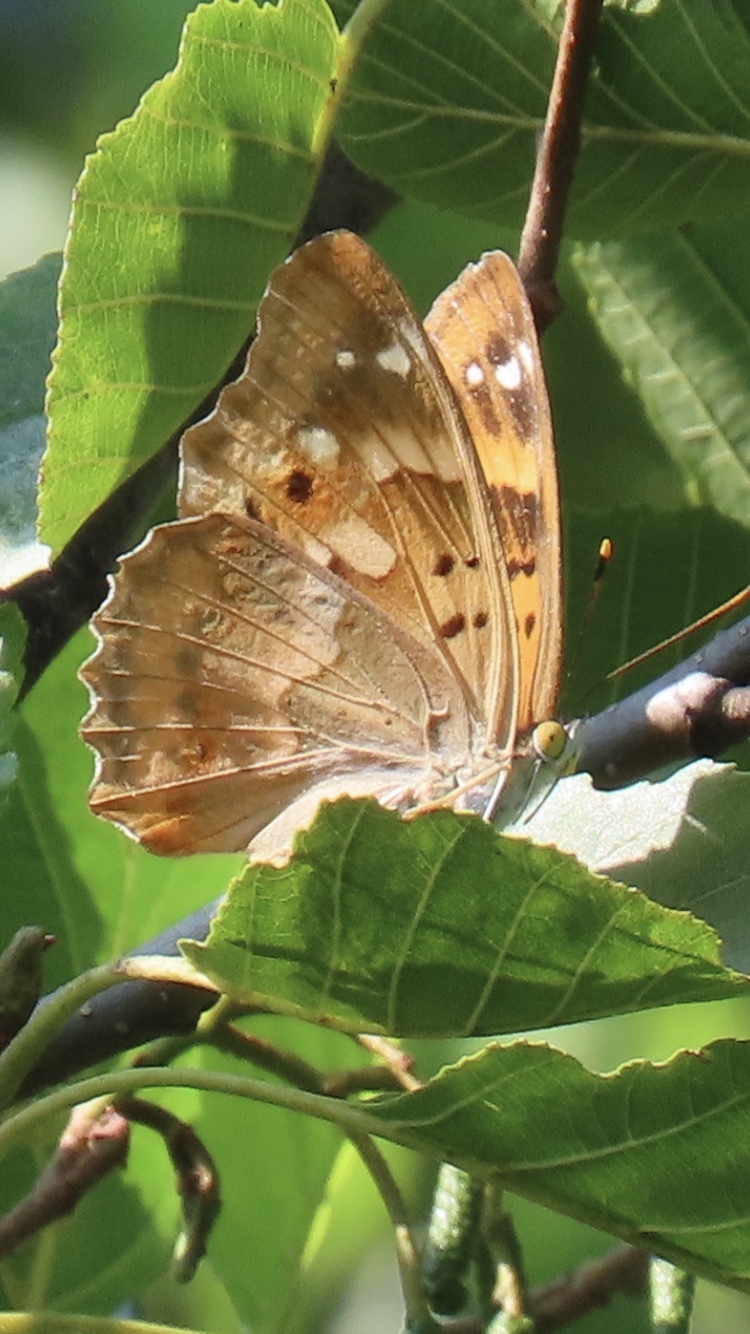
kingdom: Animalia
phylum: Arthropoda
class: Insecta
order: Lepidoptera
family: Nymphalidae
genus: Apatura
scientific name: Apatura ilia
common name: Lesser purple emperor
